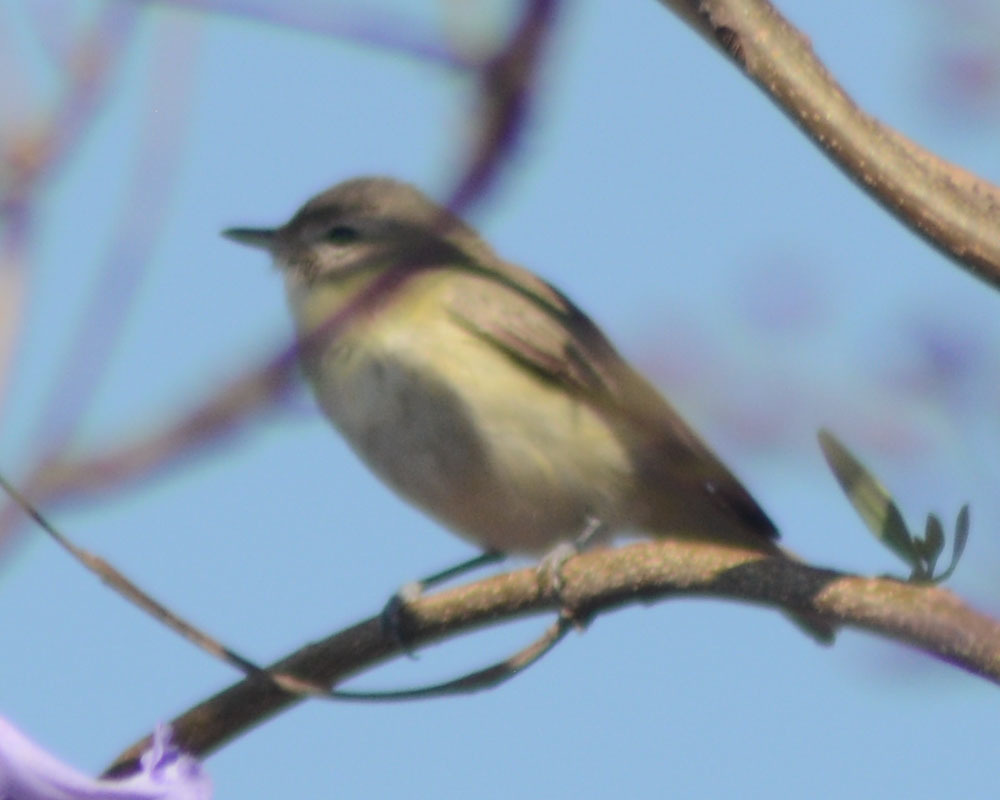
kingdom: Animalia
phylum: Chordata
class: Aves
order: Passeriformes
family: Vireonidae
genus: Vireo
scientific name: Vireo gilvus
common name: Warbling vireo
